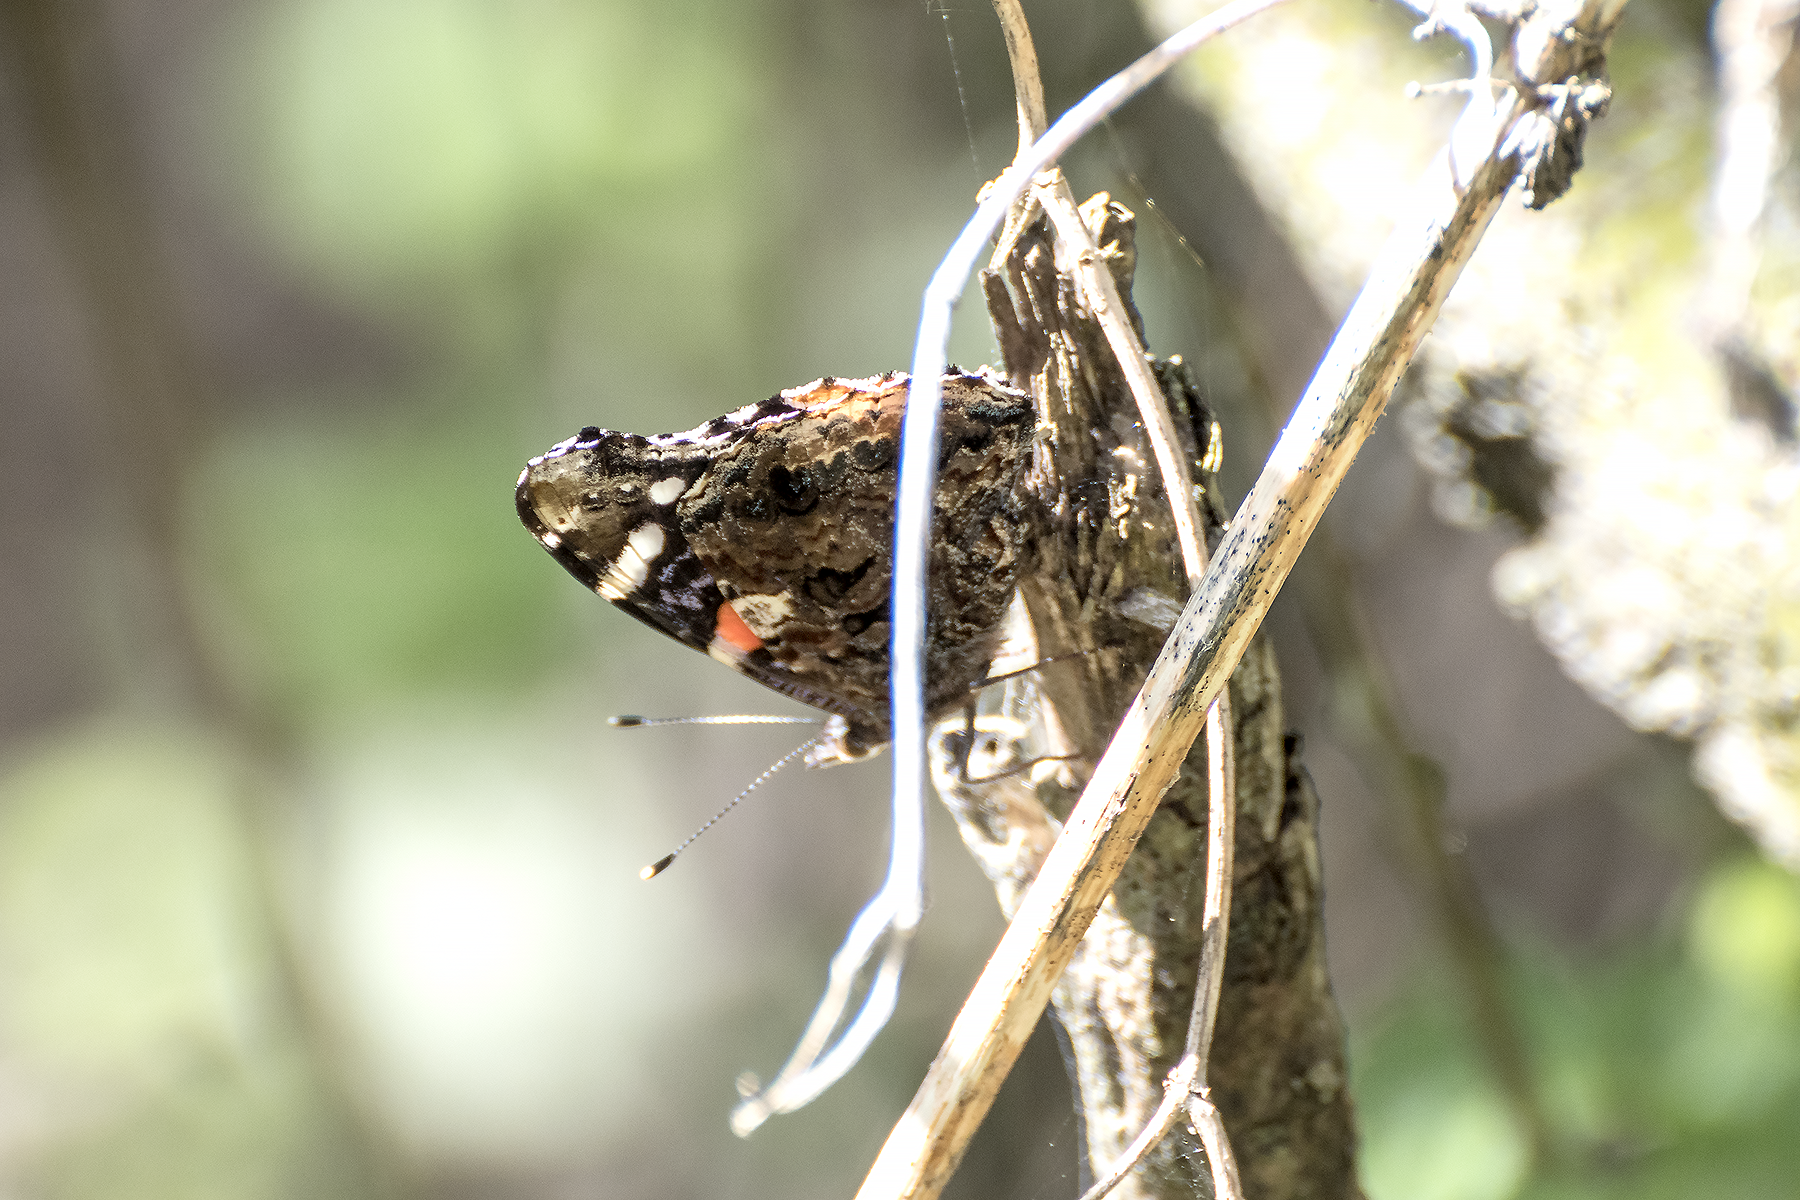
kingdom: Animalia
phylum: Arthropoda
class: Insecta
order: Lepidoptera
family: Nymphalidae
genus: Vanessa
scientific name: Vanessa atalanta
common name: Red admiral
